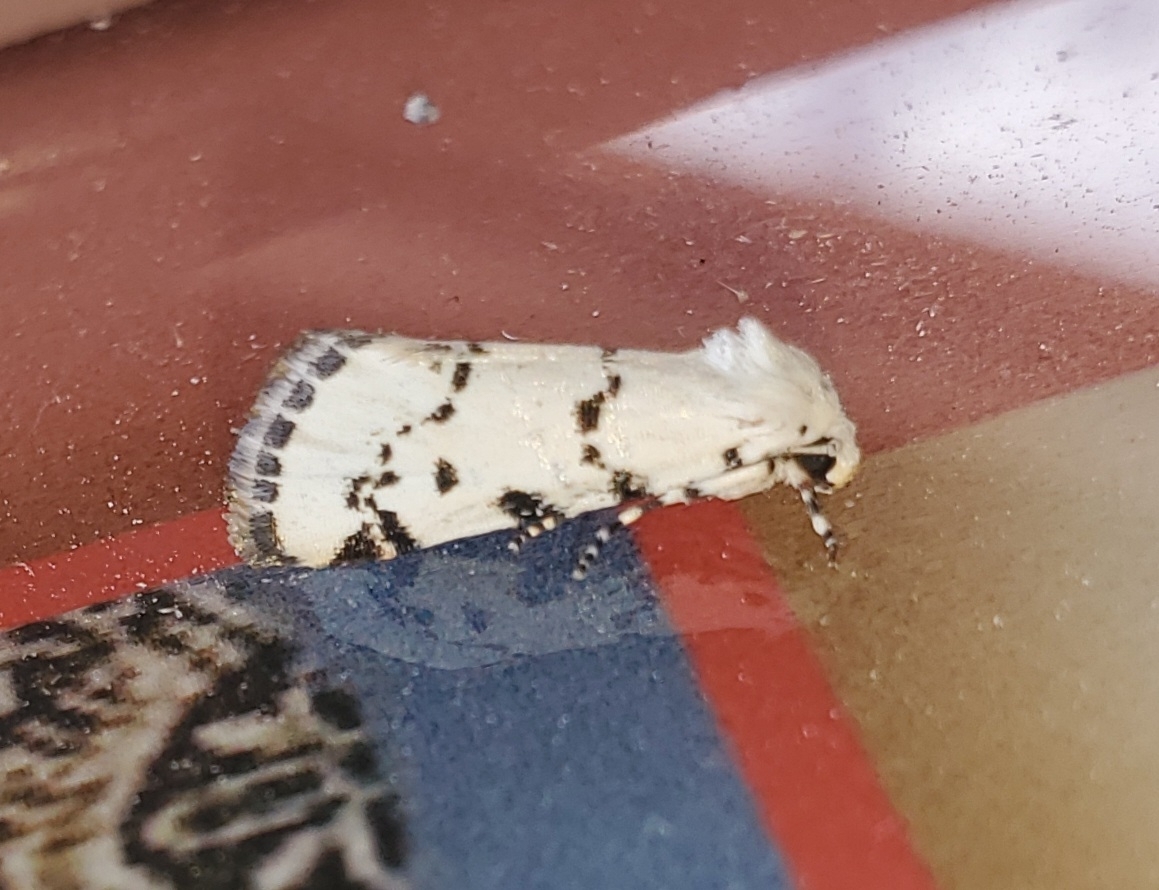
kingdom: Animalia
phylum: Arthropoda
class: Insecta
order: Lepidoptera
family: Noctuidae
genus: Grotella
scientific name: Grotella binda
